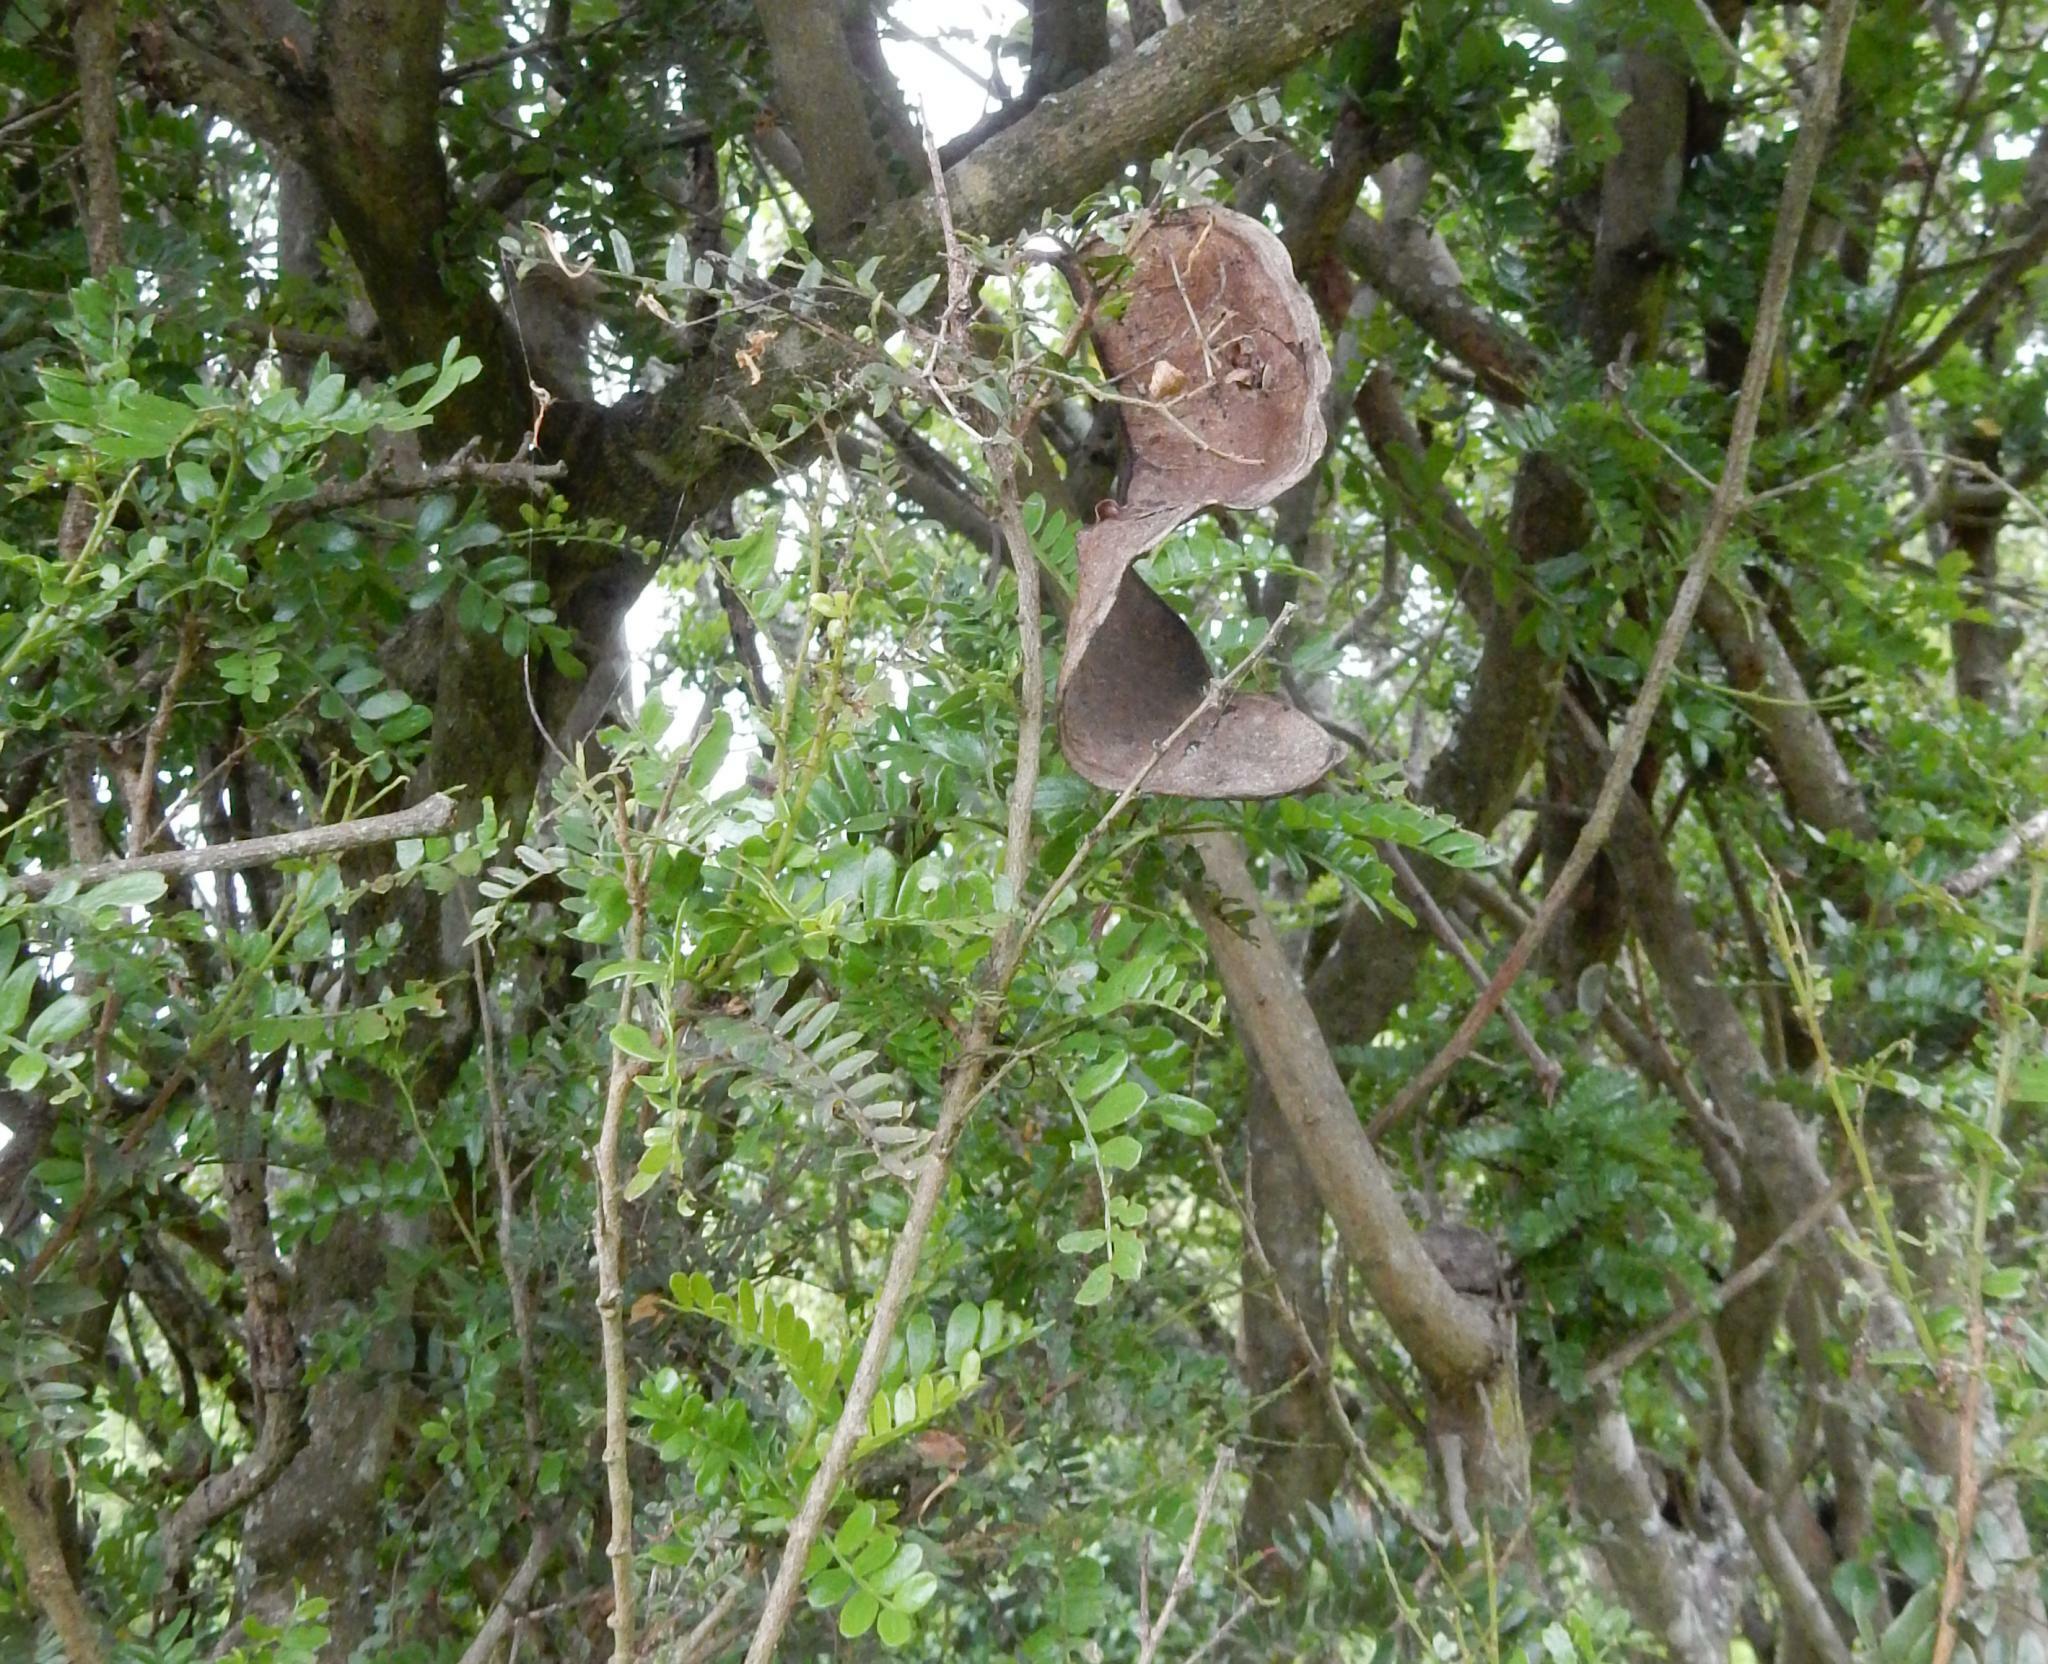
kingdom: Plantae
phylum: Tracheophyta
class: Magnoliopsida
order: Fabales
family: Fabaceae
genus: Schotia
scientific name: Schotia afra
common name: Hottentot's bean
